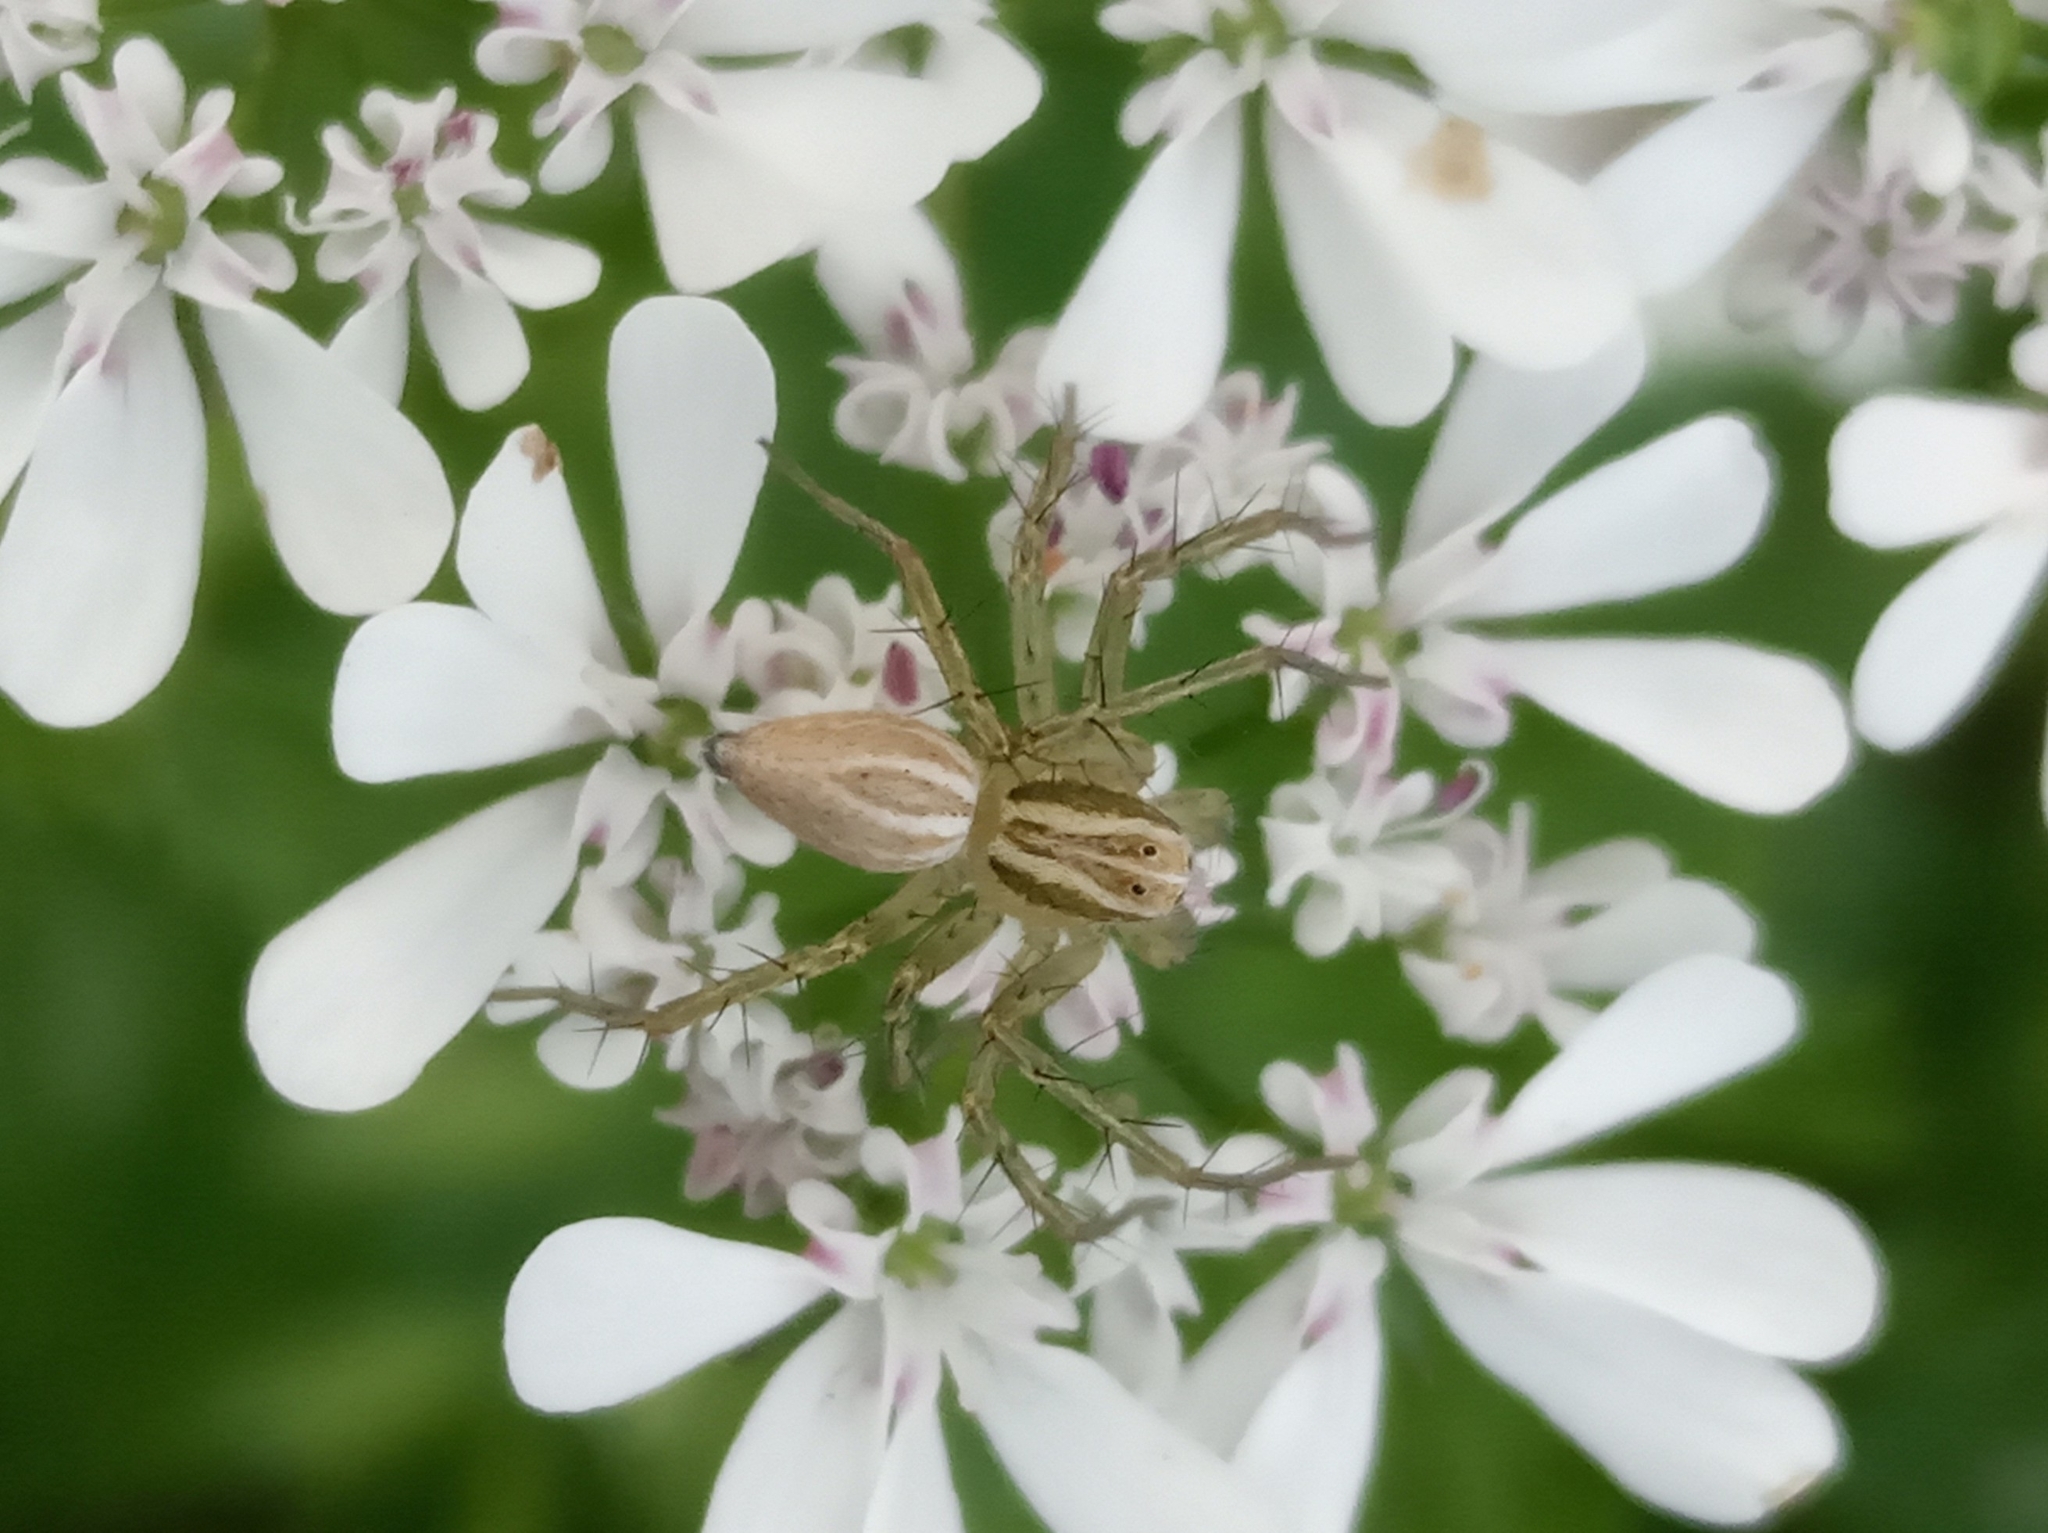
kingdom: Animalia
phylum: Arthropoda
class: Arachnida
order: Araneae
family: Oxyopidae
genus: Oxyopes
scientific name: Oxyopes lineatus
